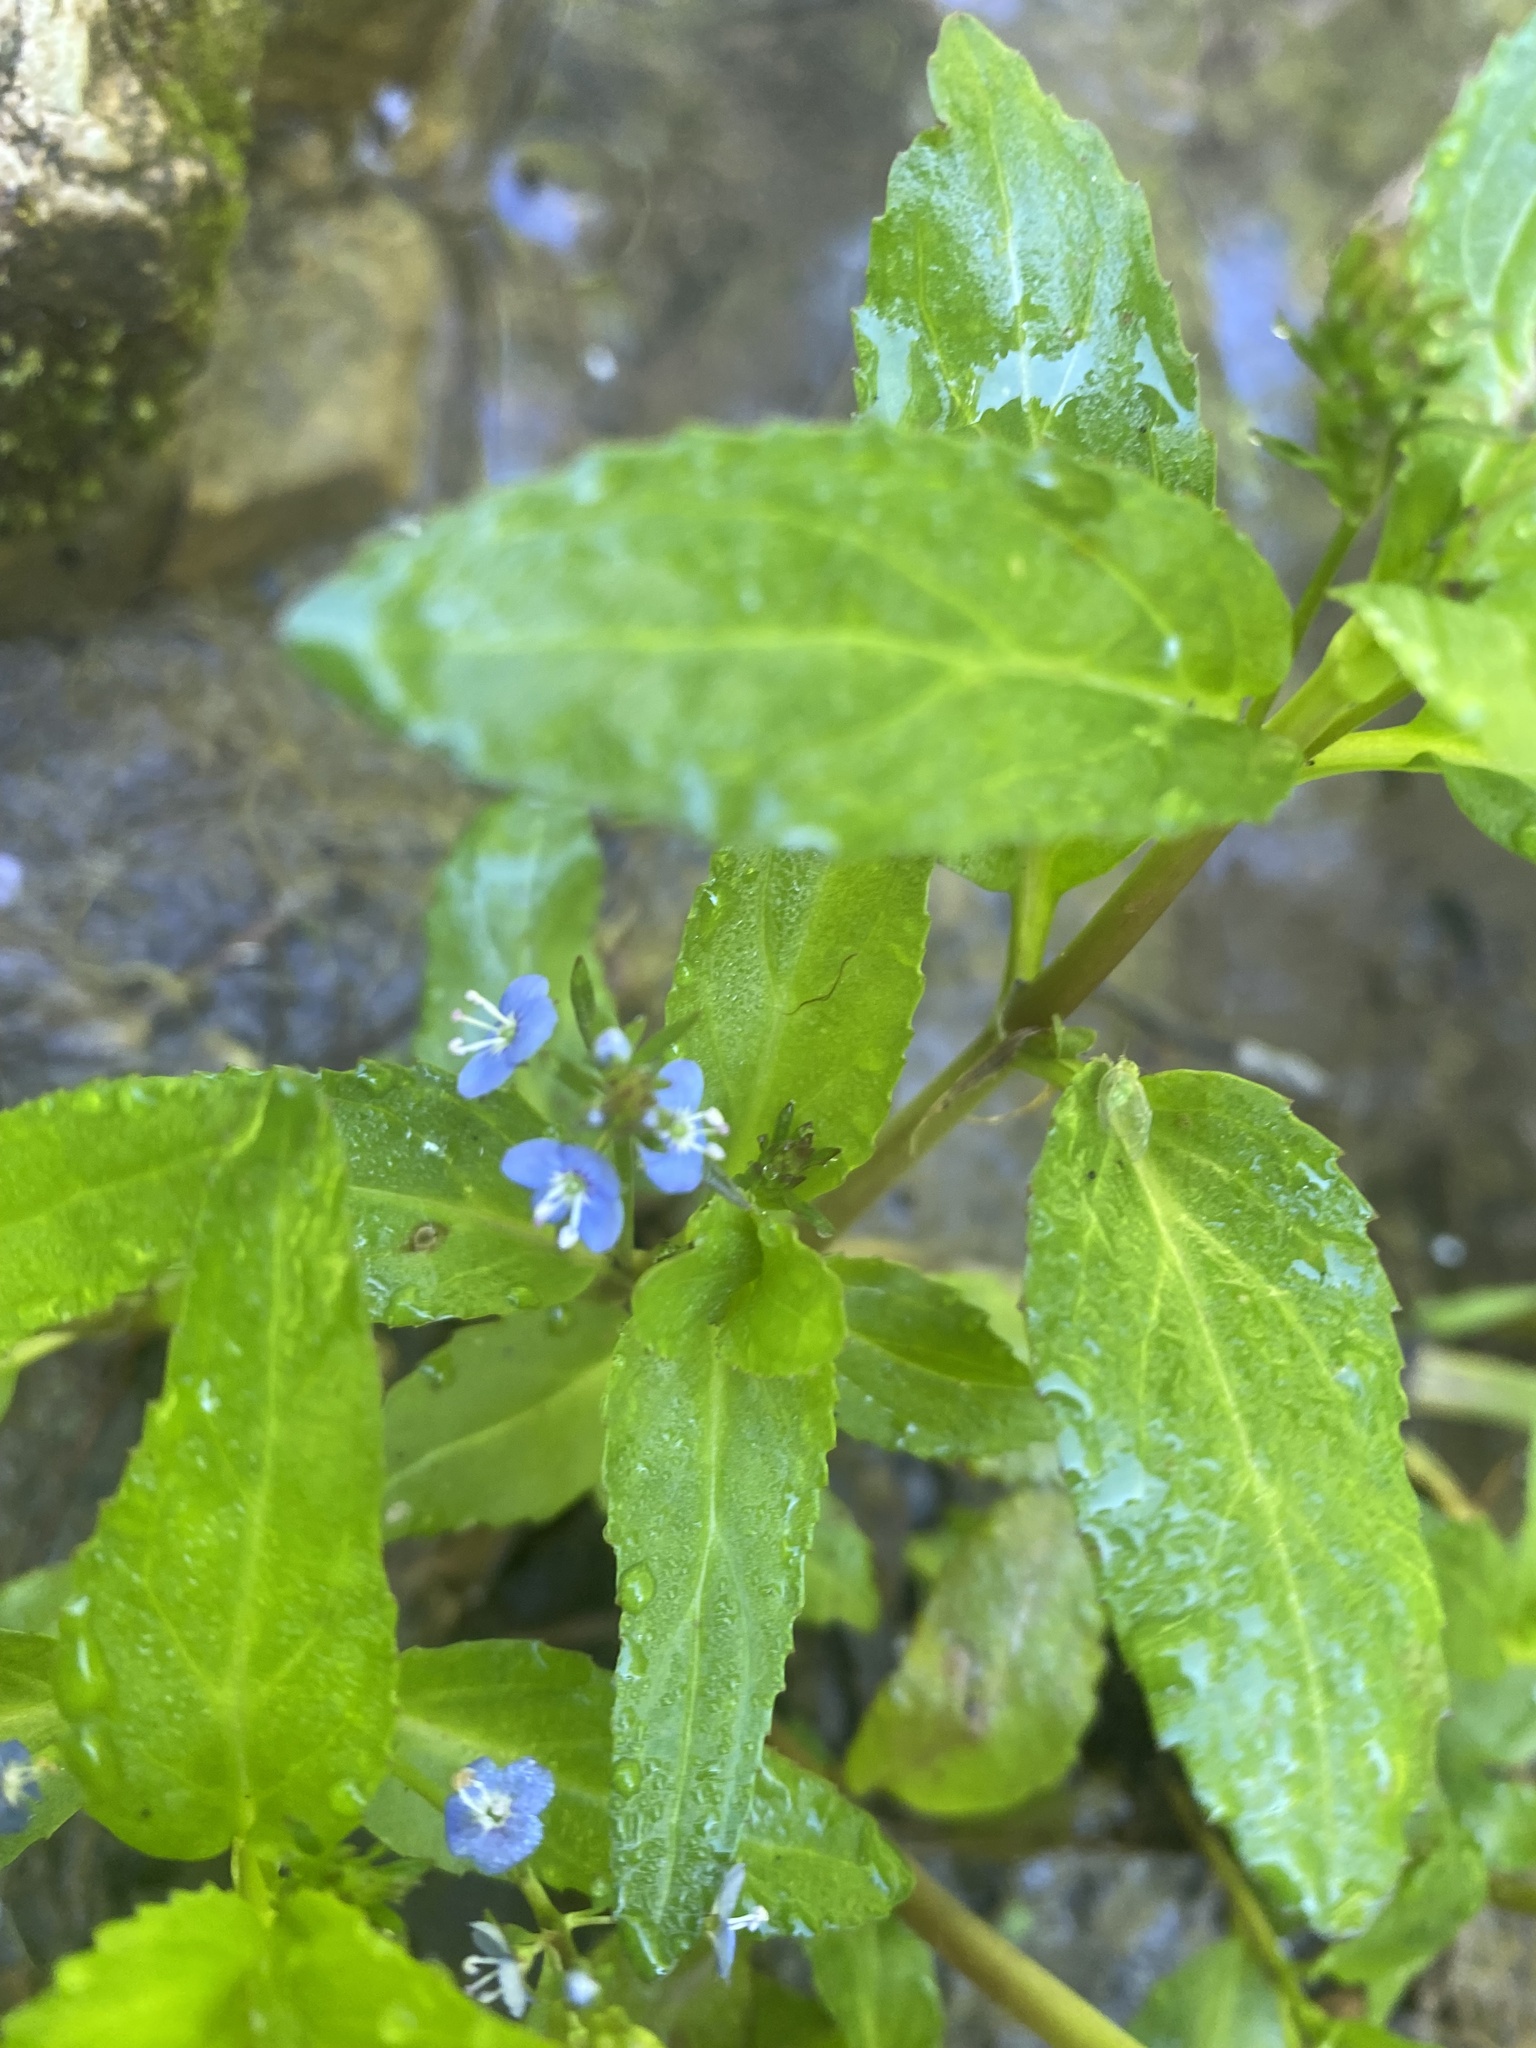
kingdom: Plantae
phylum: Tracheophyta
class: Magnoliopsida
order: Lamiales
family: Plantaginaceae
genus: Veronica
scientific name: Veronica beccabunga
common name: Brooklime
